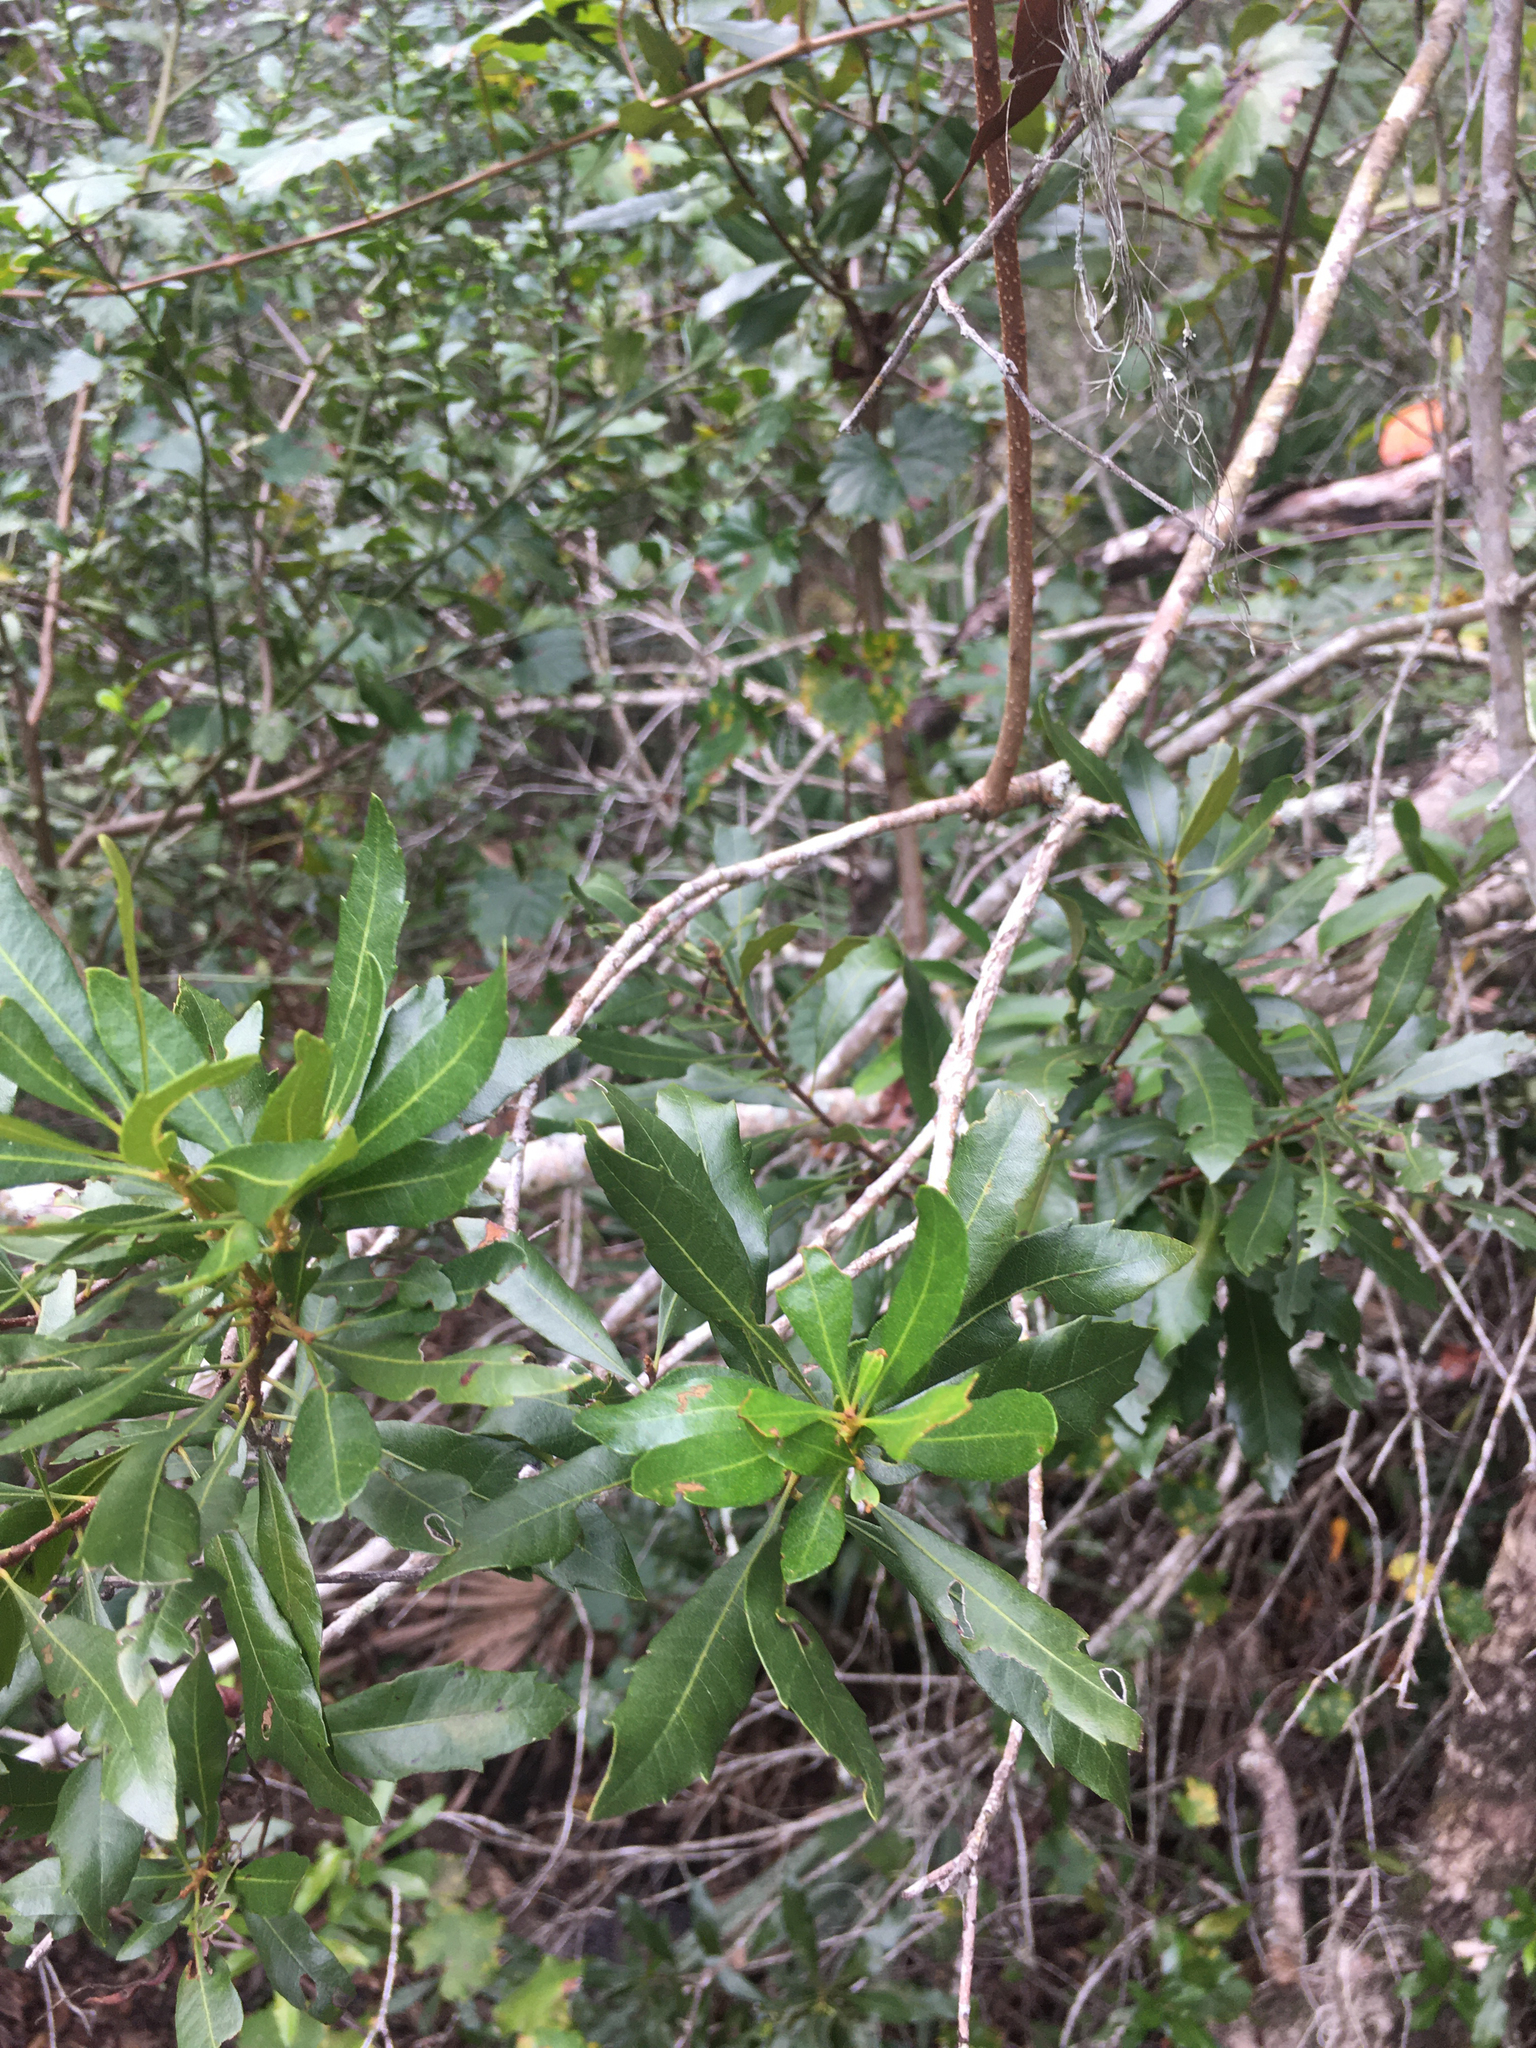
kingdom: Plantae
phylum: Tracheophyta
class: Magnoliopsida
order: Fagales
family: Myricaceae
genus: Morella
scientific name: Morella cerifera
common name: Wax myrtle
